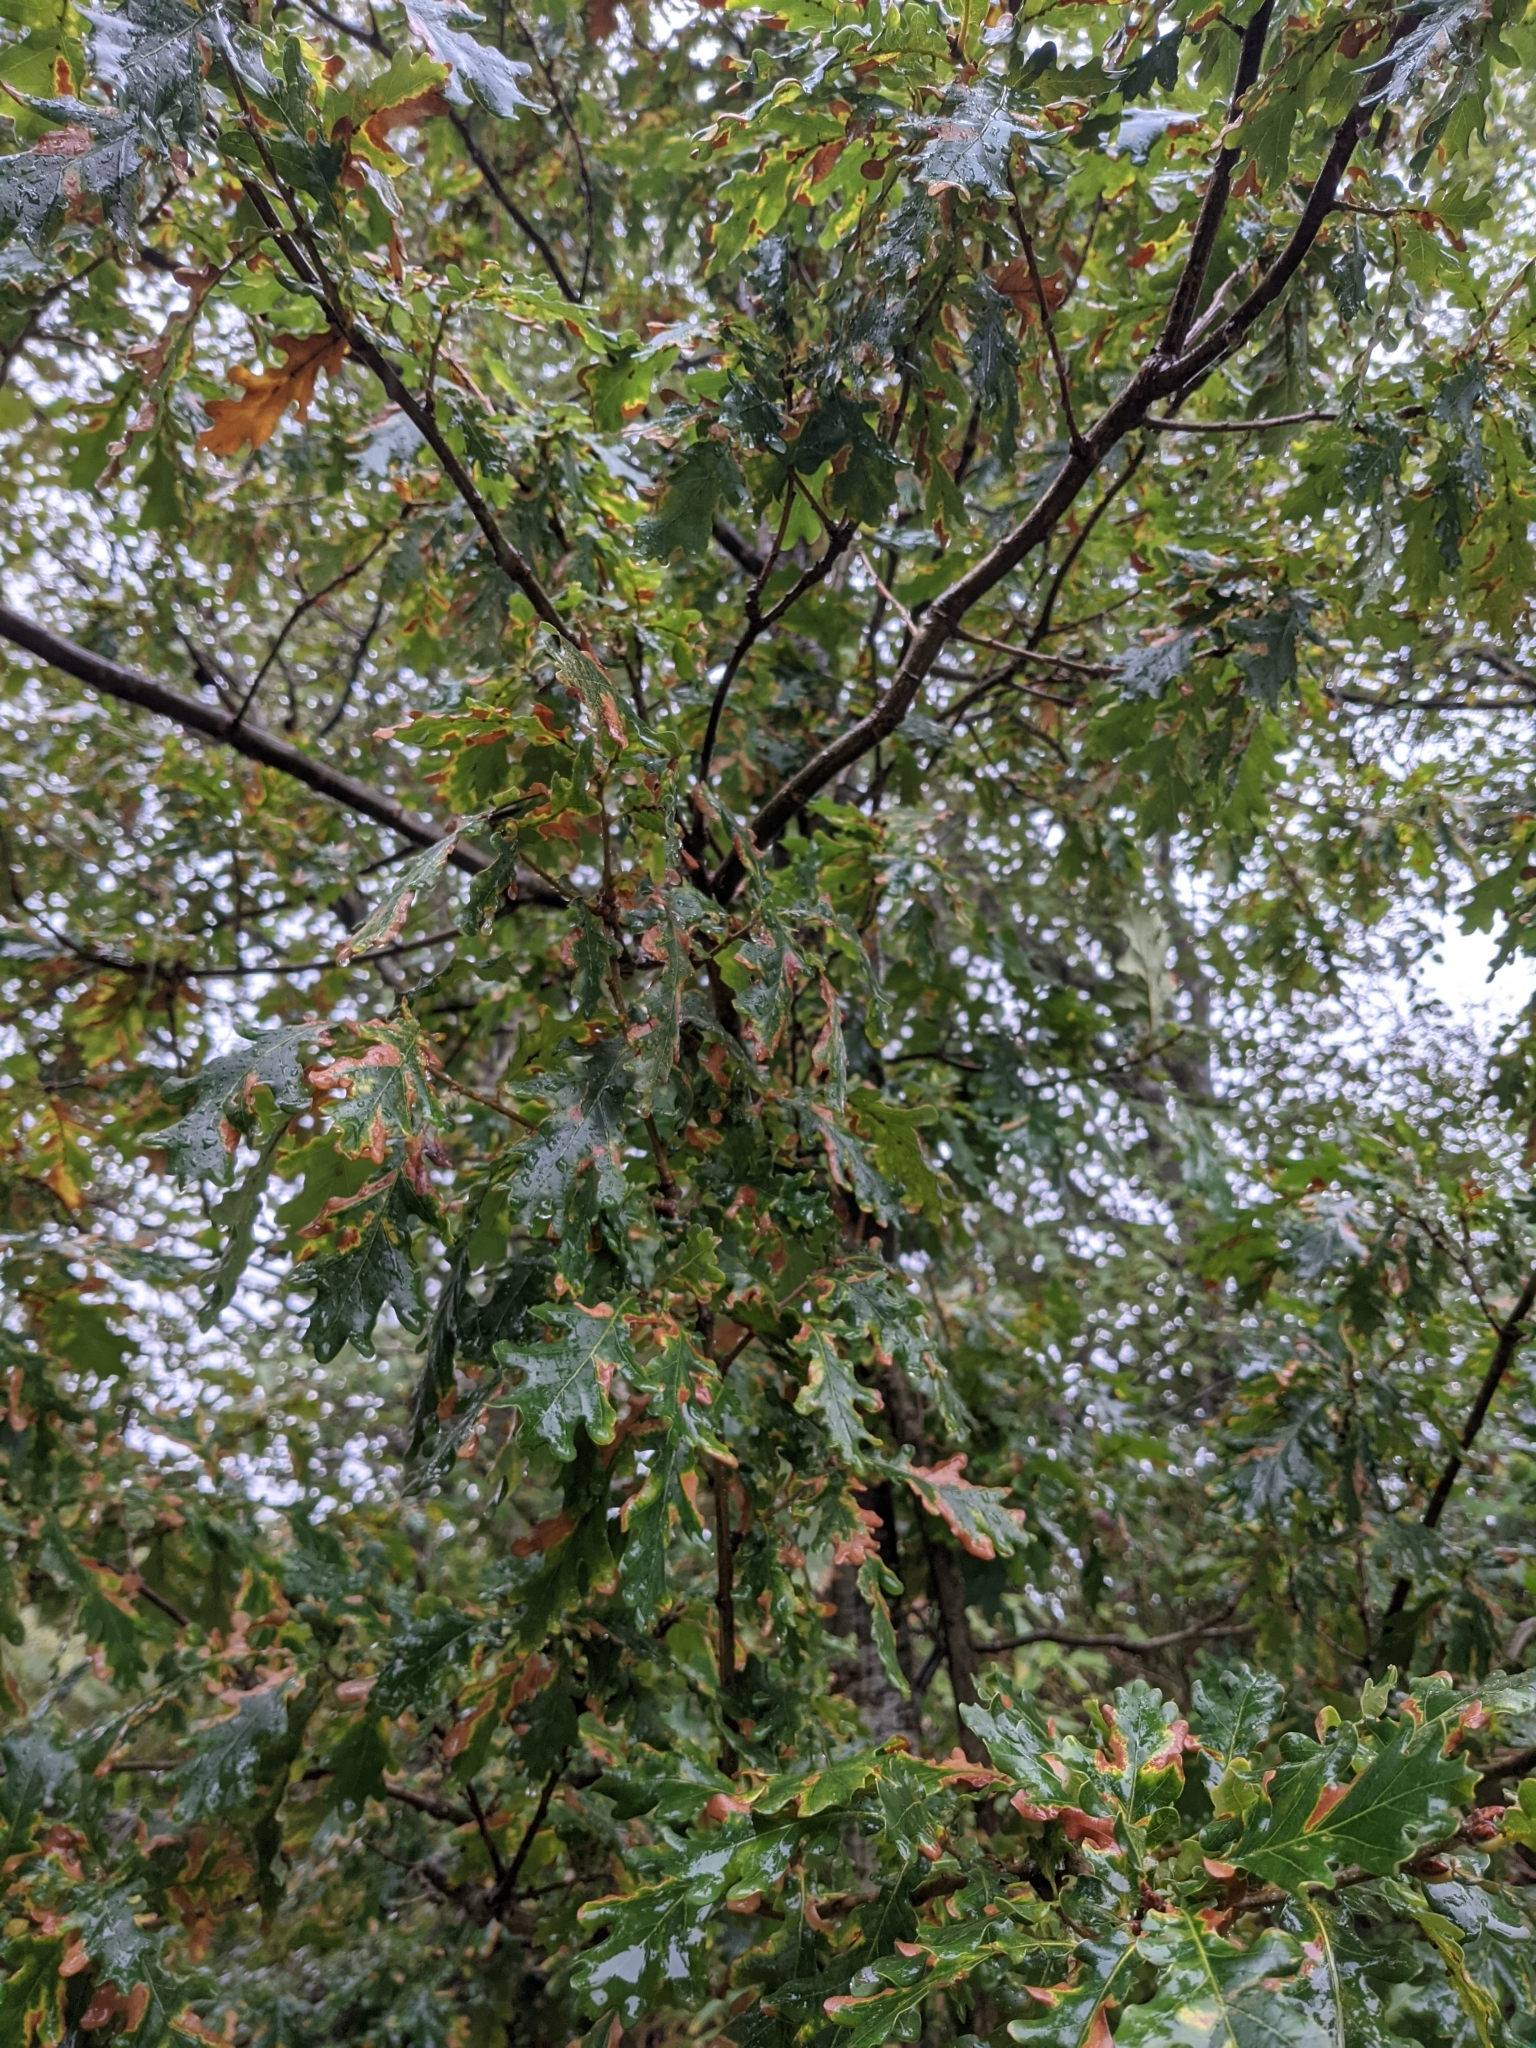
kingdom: Plantae
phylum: Tracheophyta
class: Magnoliopsida
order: Fagales
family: Fagaceae
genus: Quercus
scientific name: Quercus robur
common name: Pedunculate oak
